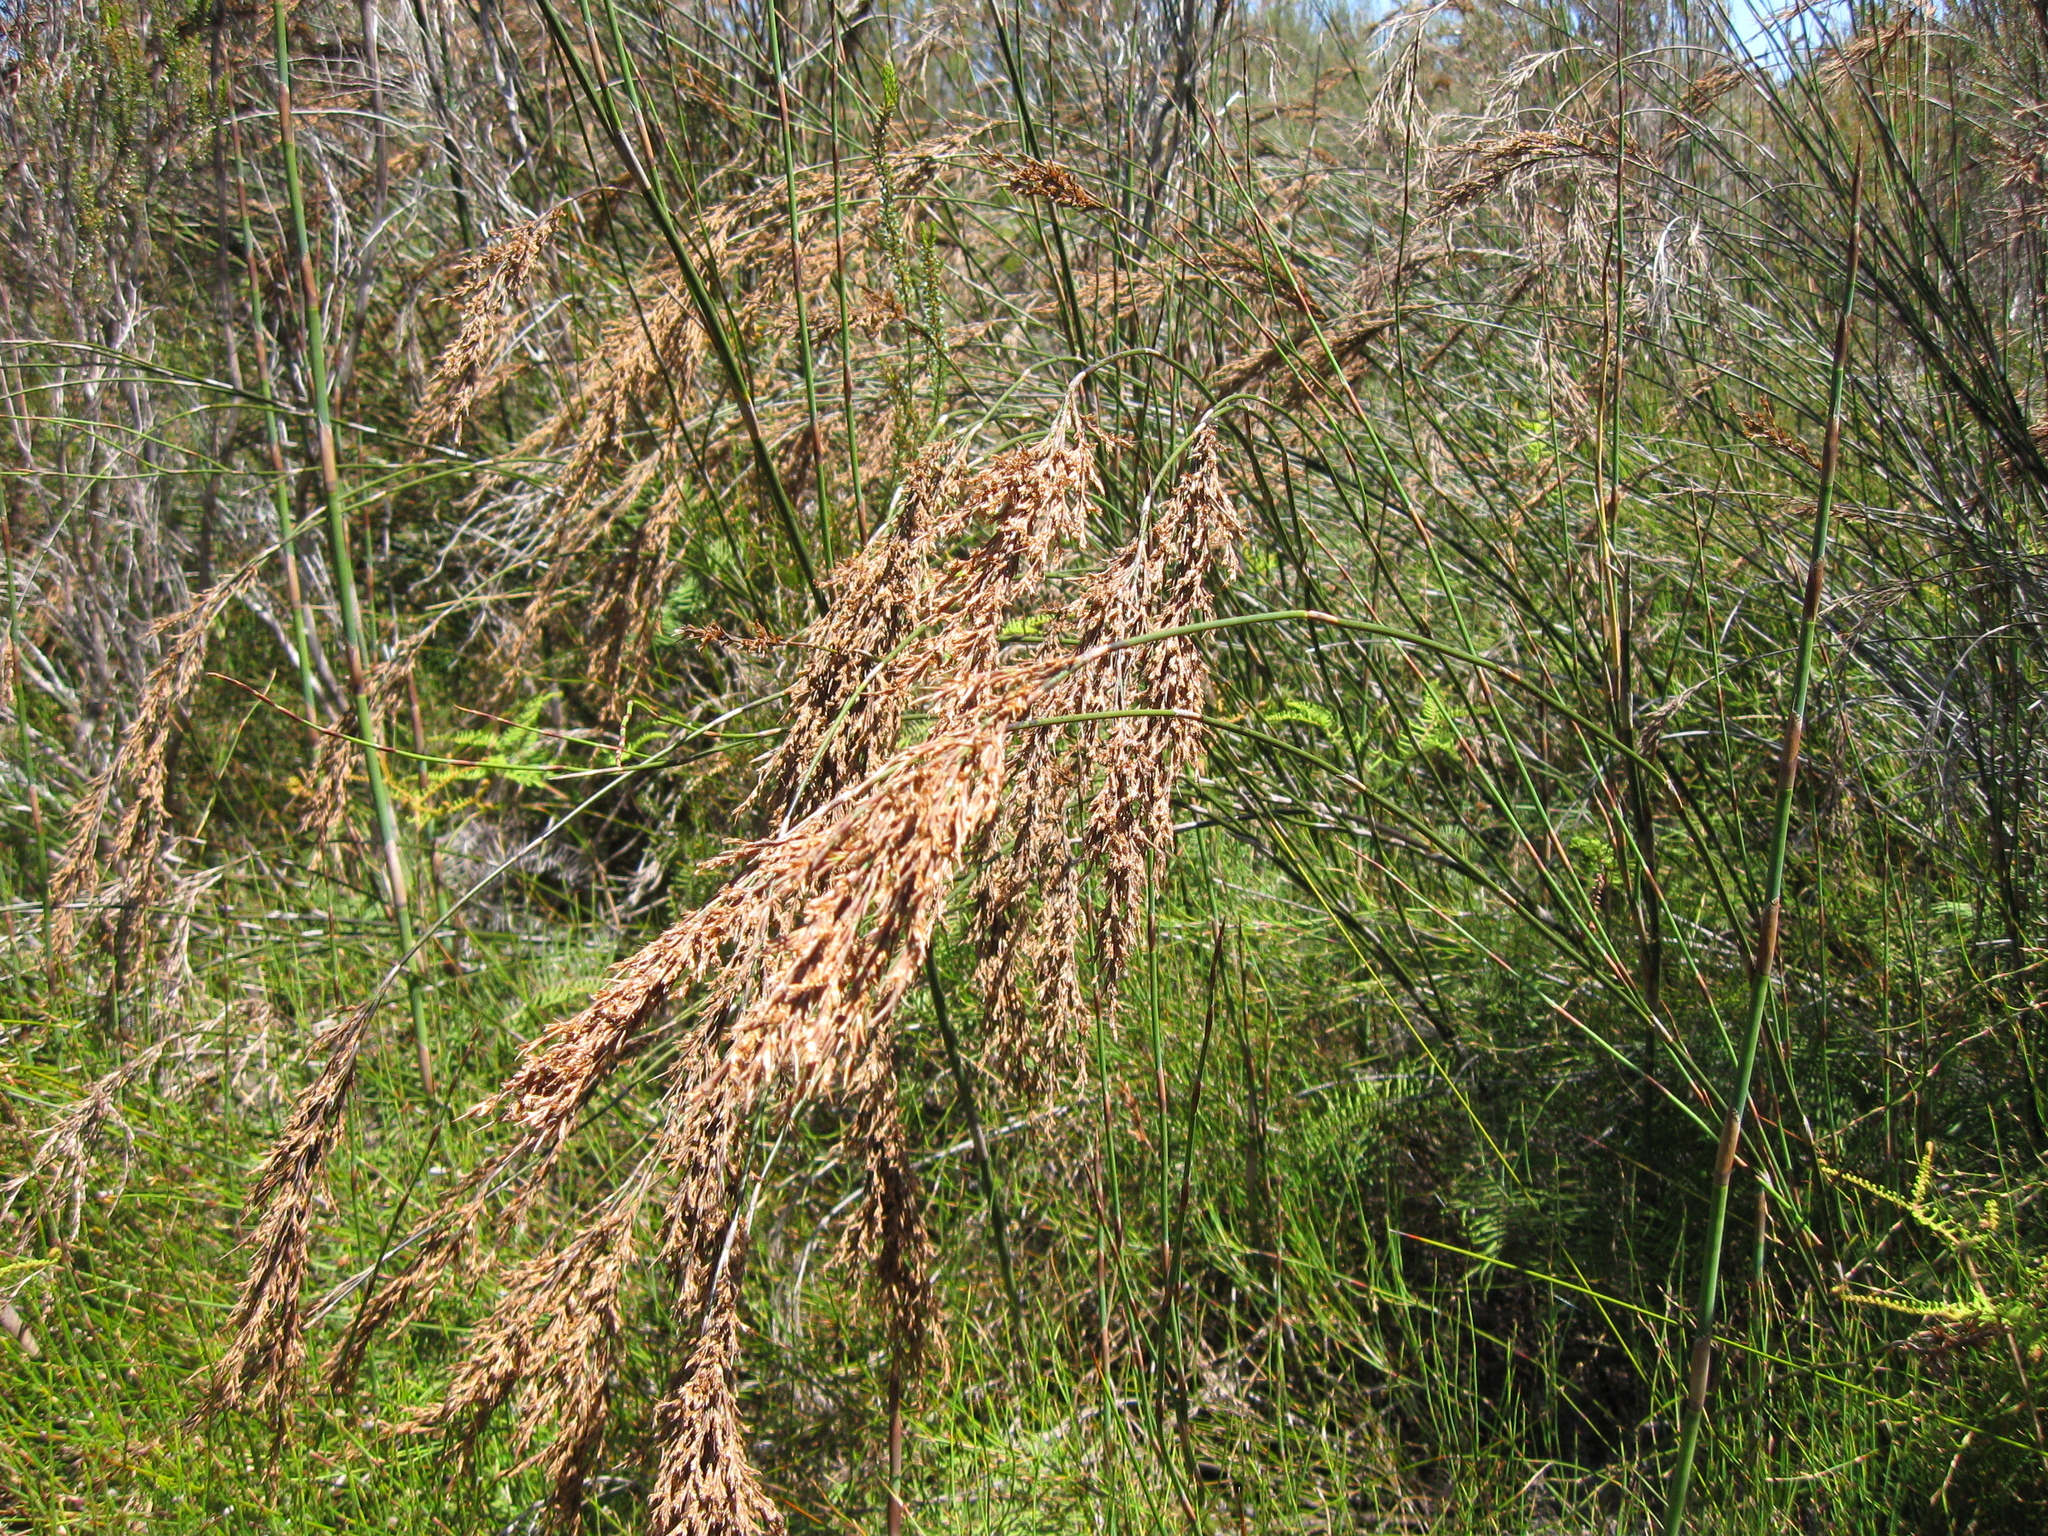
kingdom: Plantae
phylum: Tracheophyta
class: Liliopsida
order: Poales
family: Restionaceae
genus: Sporadanthus
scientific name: Sporadanthus ferrugineus
